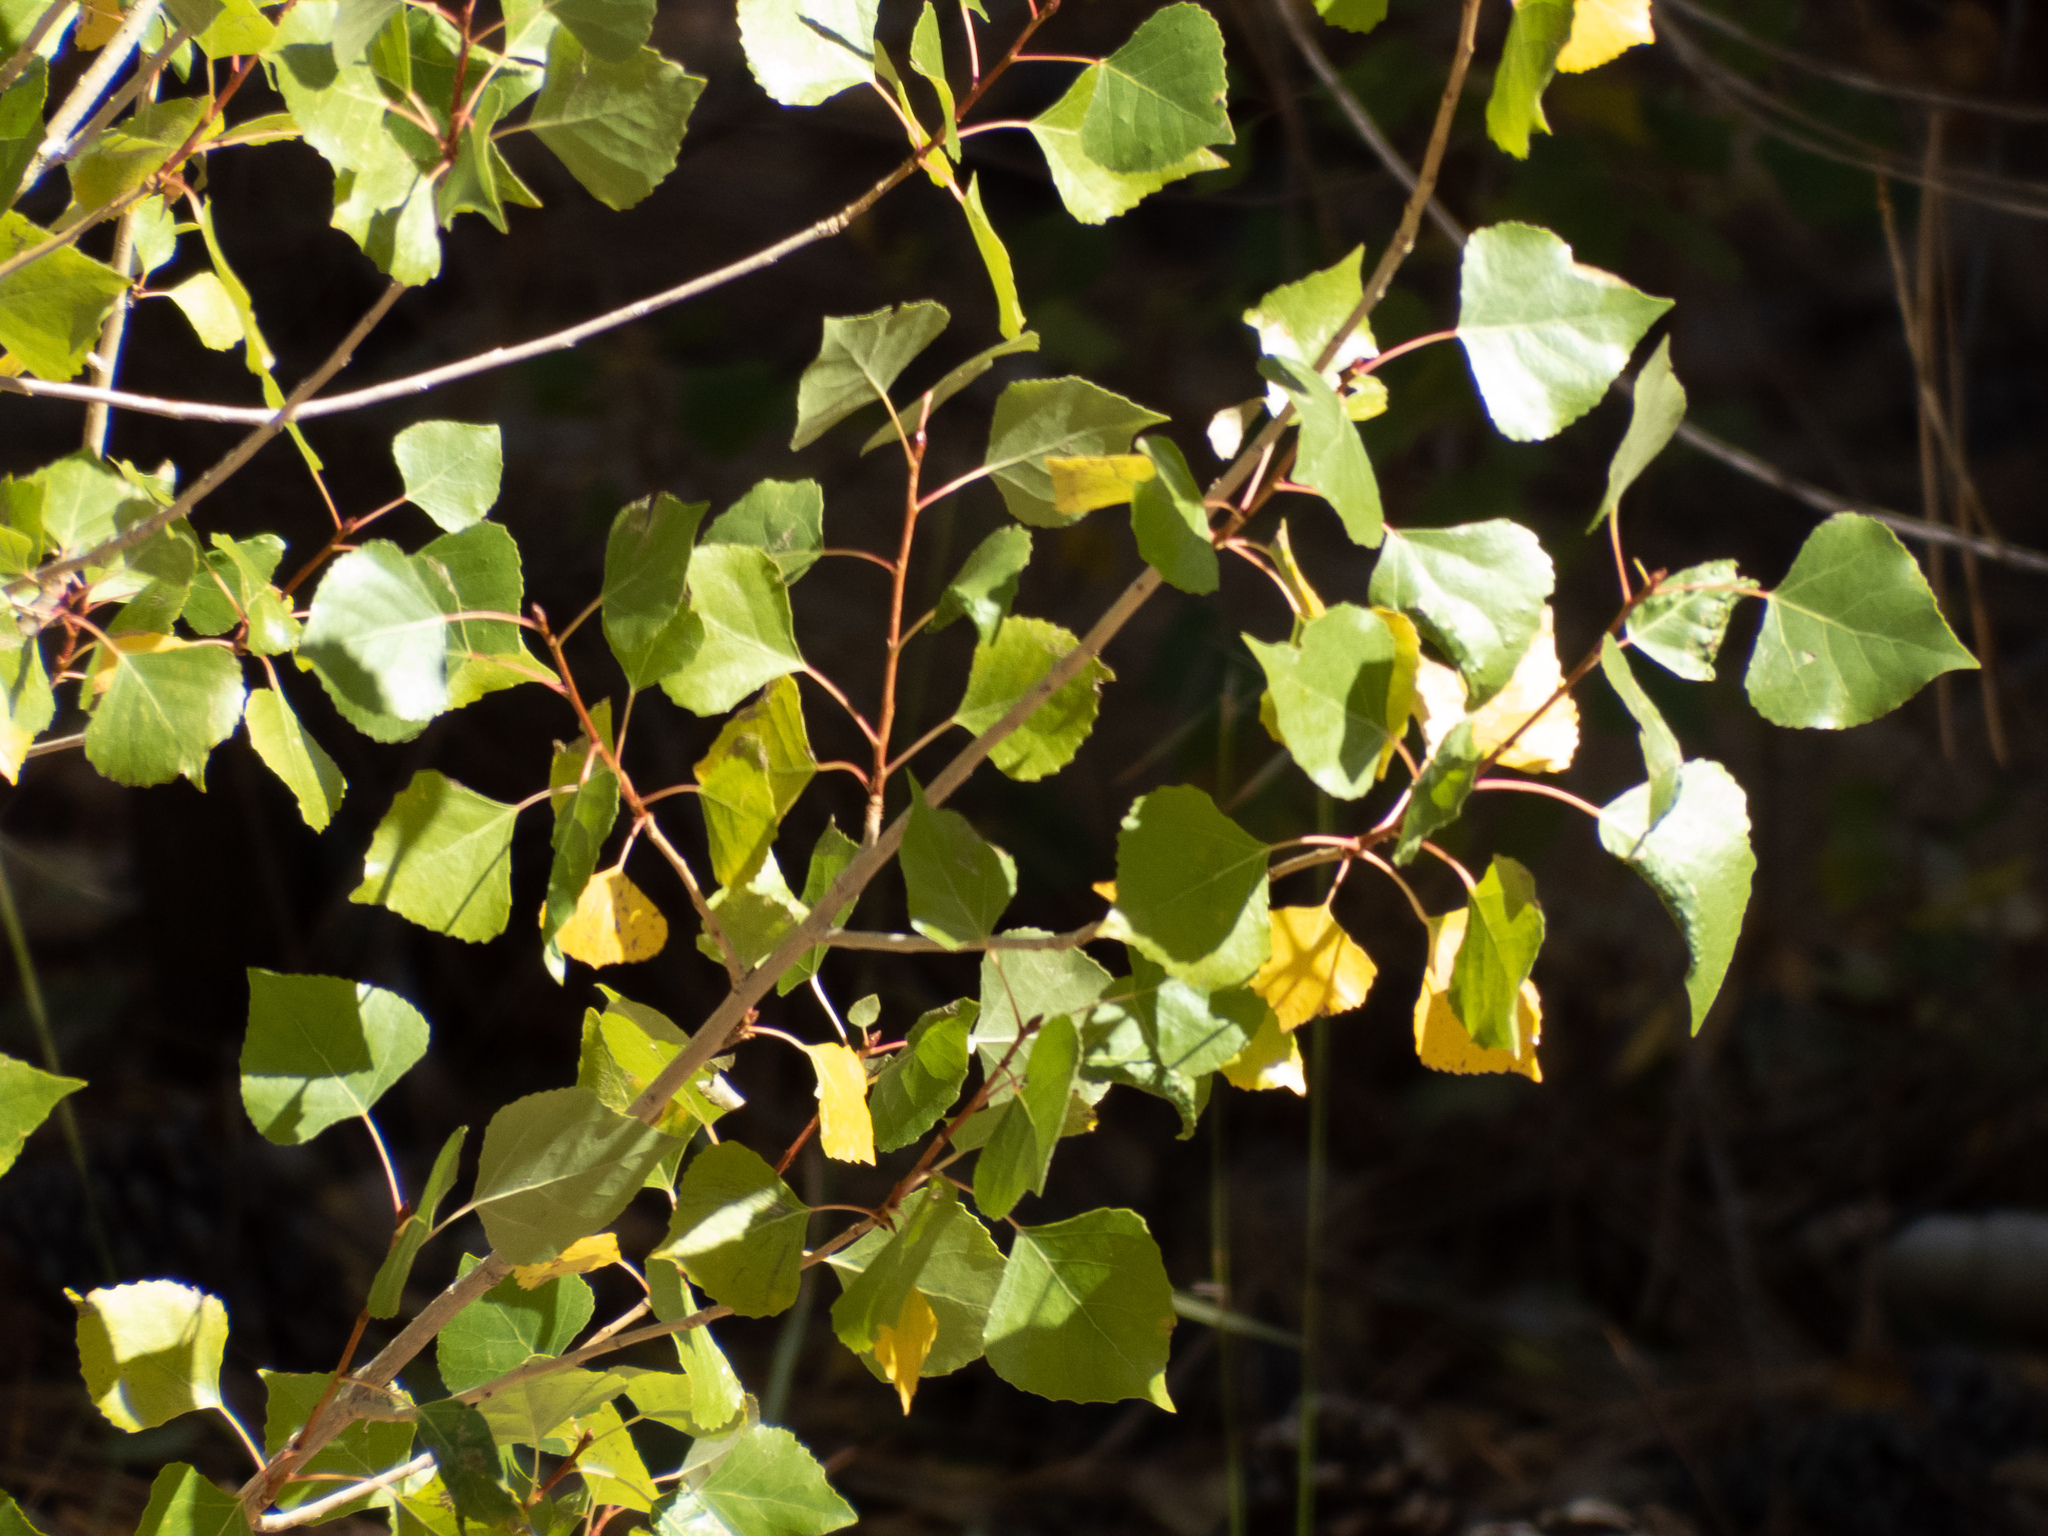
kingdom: Plantae
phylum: Tracheophyta
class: Magnoliopsida
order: Malpighiales
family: Salicaceae
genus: Populus
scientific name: Populus tremuloides
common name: Quaking aspen
